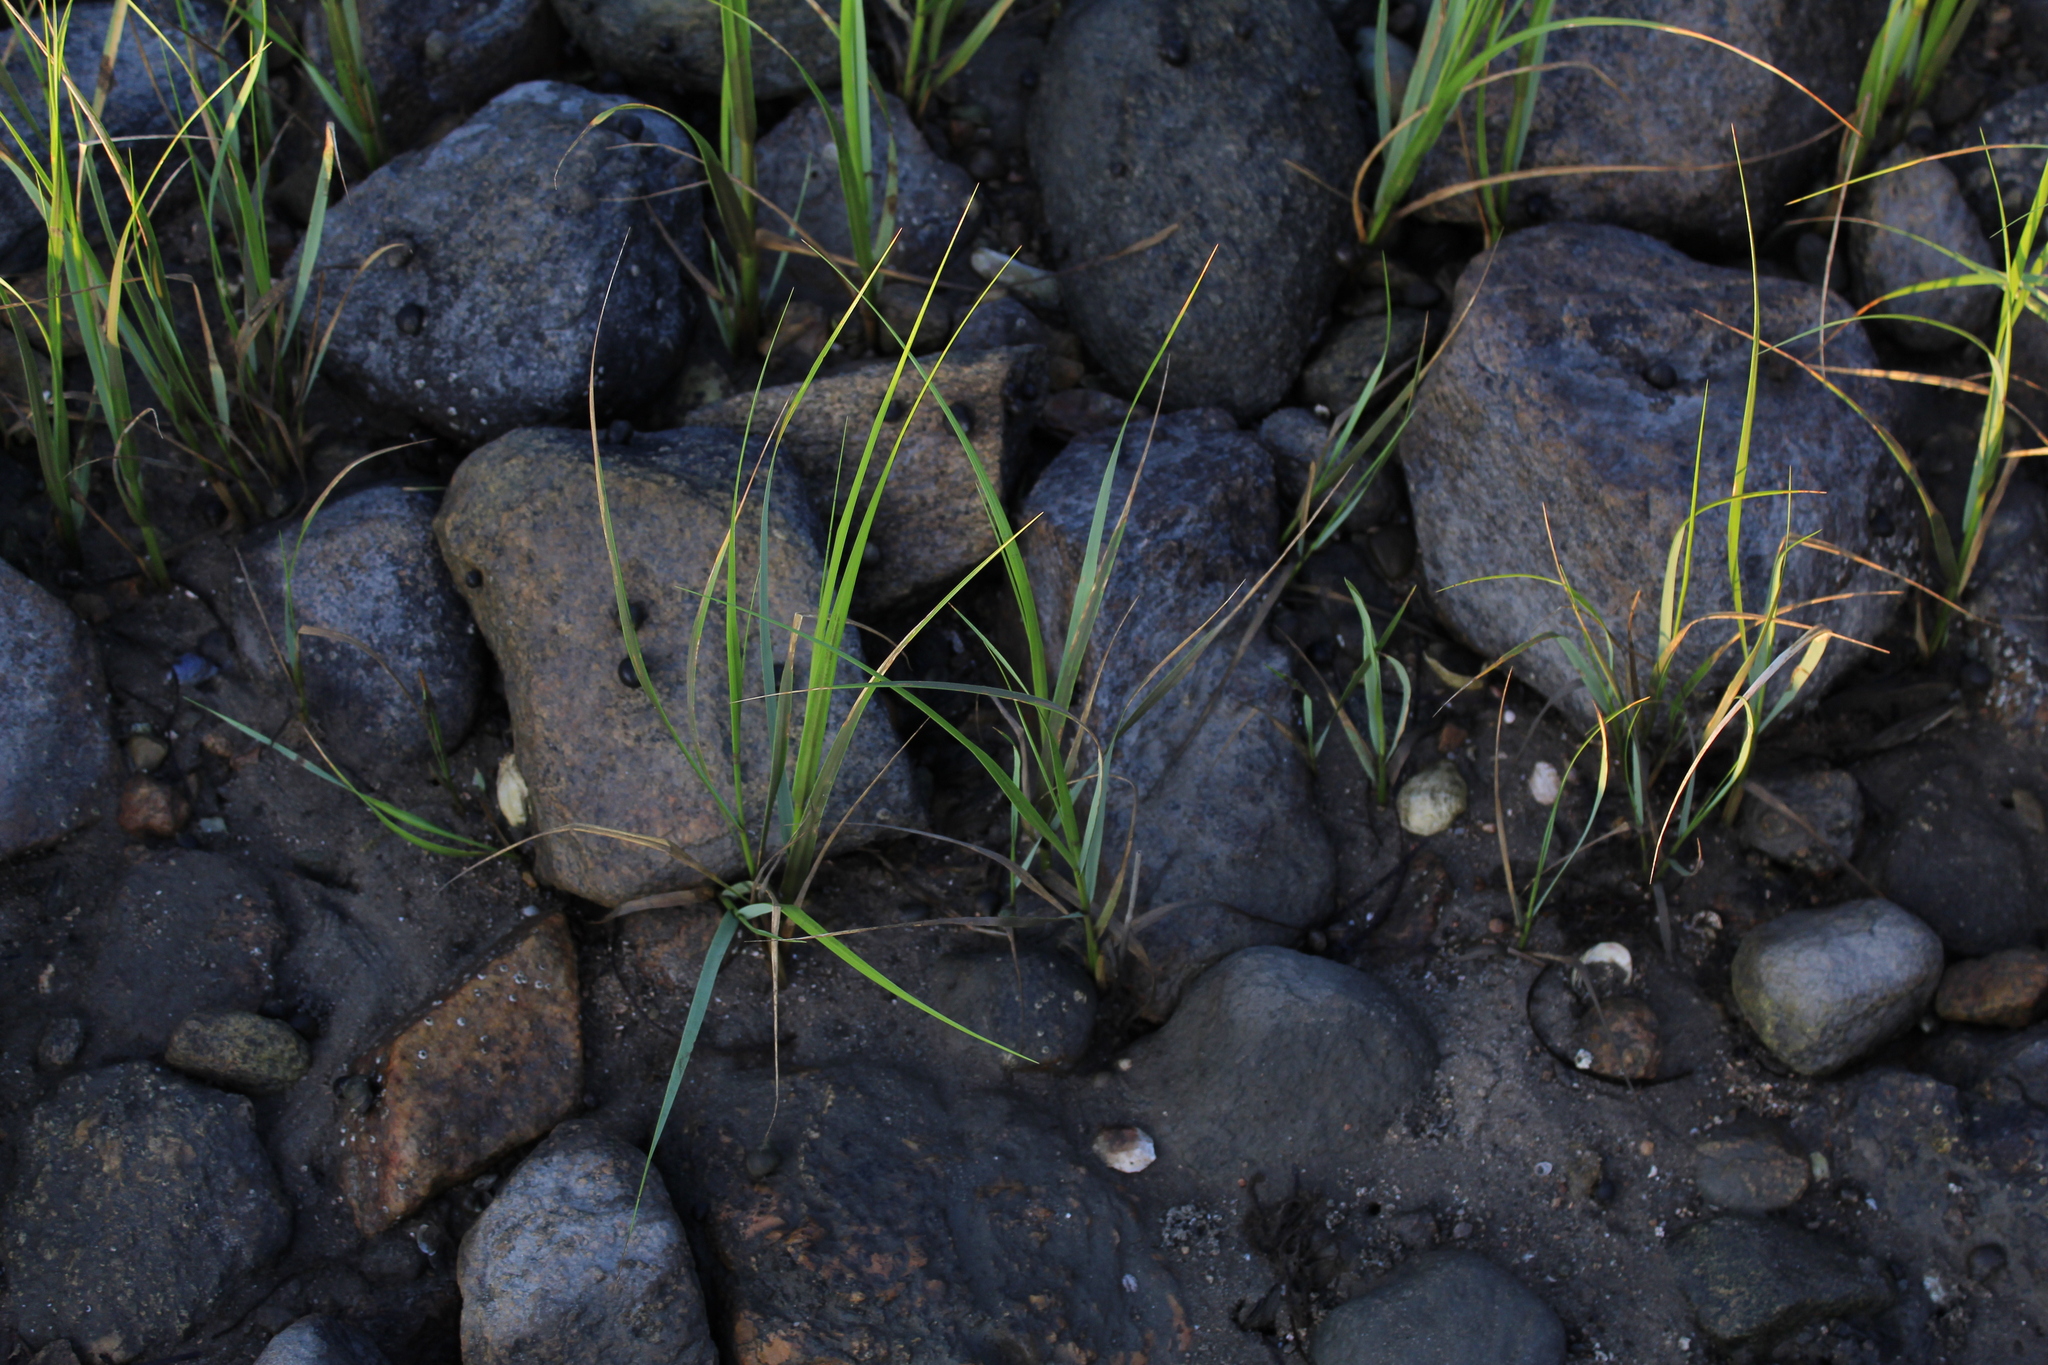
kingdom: Plantae
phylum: Tracheophyta
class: Liliopsida
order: Poales
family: Poaceae
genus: Sporobolus
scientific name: Sporobolus alterniflorus
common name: Atlantic cordgrass
